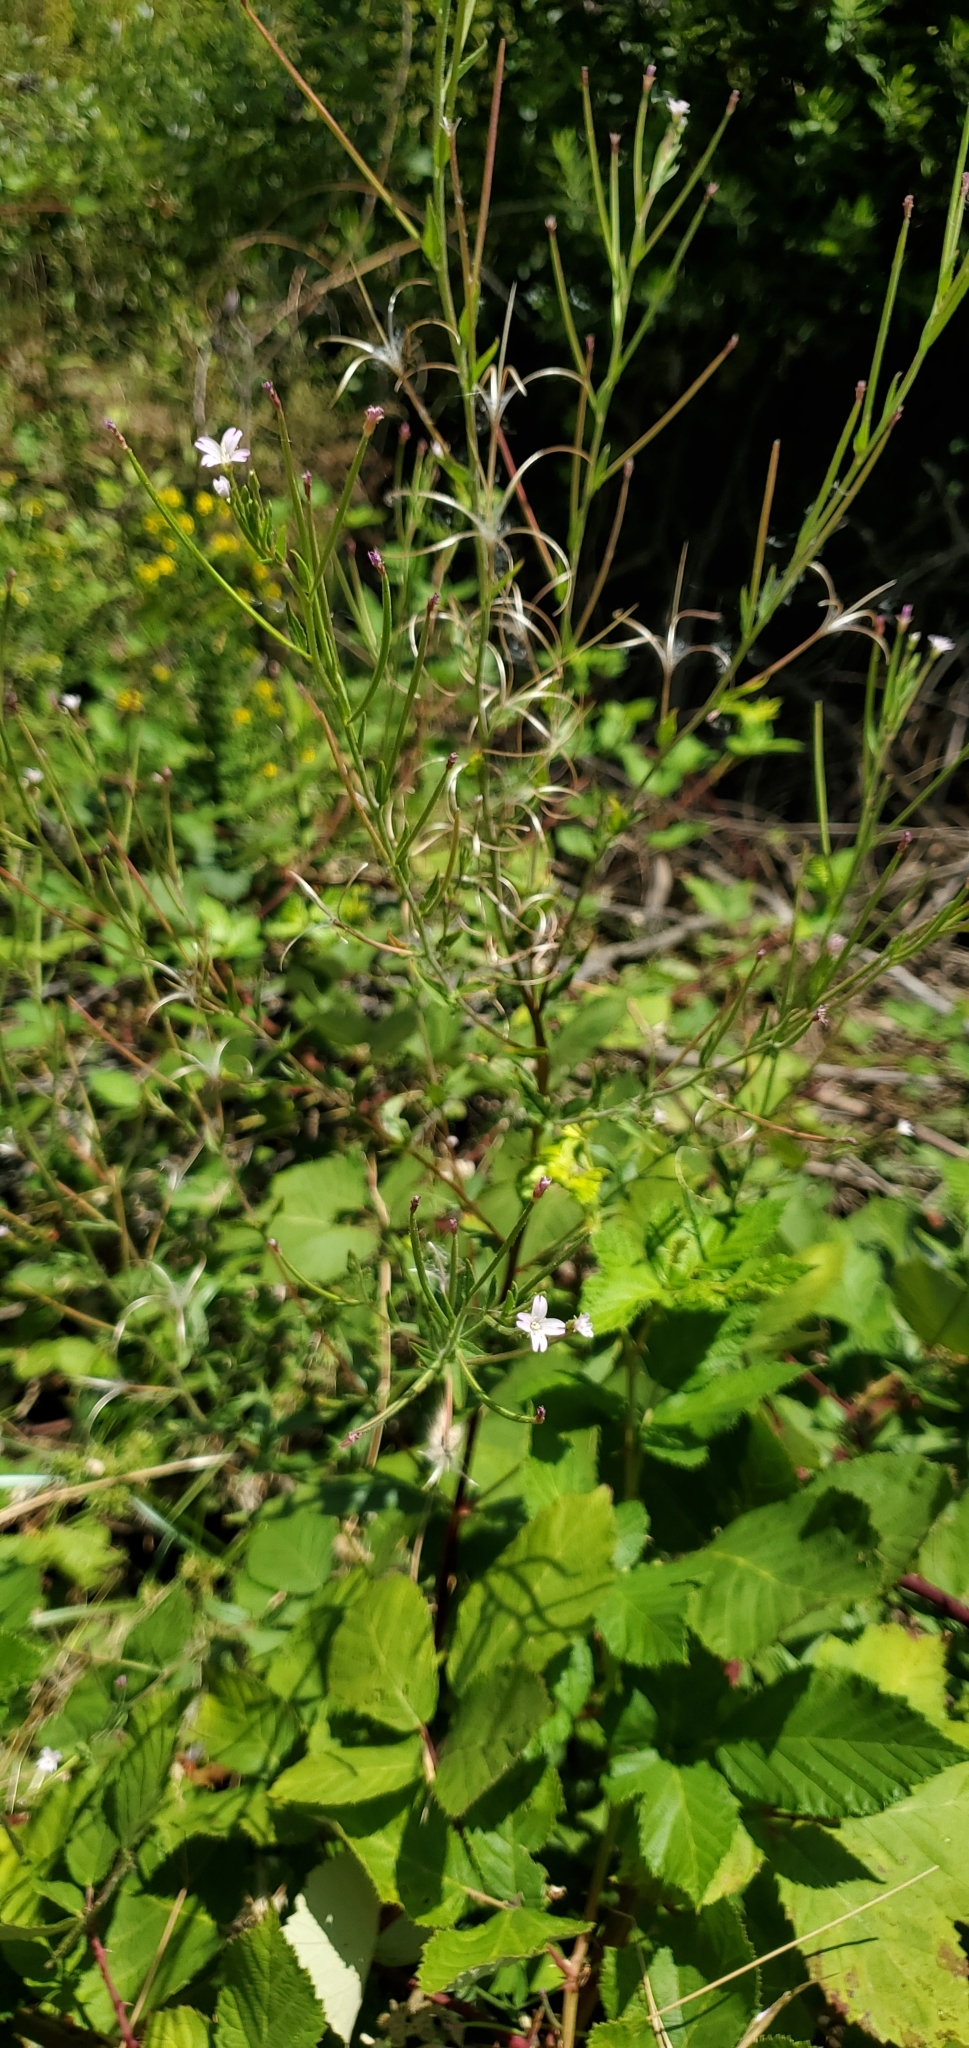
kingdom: Plantae
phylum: Tracheophyta
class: Magnoliopsida
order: Myrtales
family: Onagraceae
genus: Epilobium
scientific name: Epilobium ciliatum
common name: American willowherb
